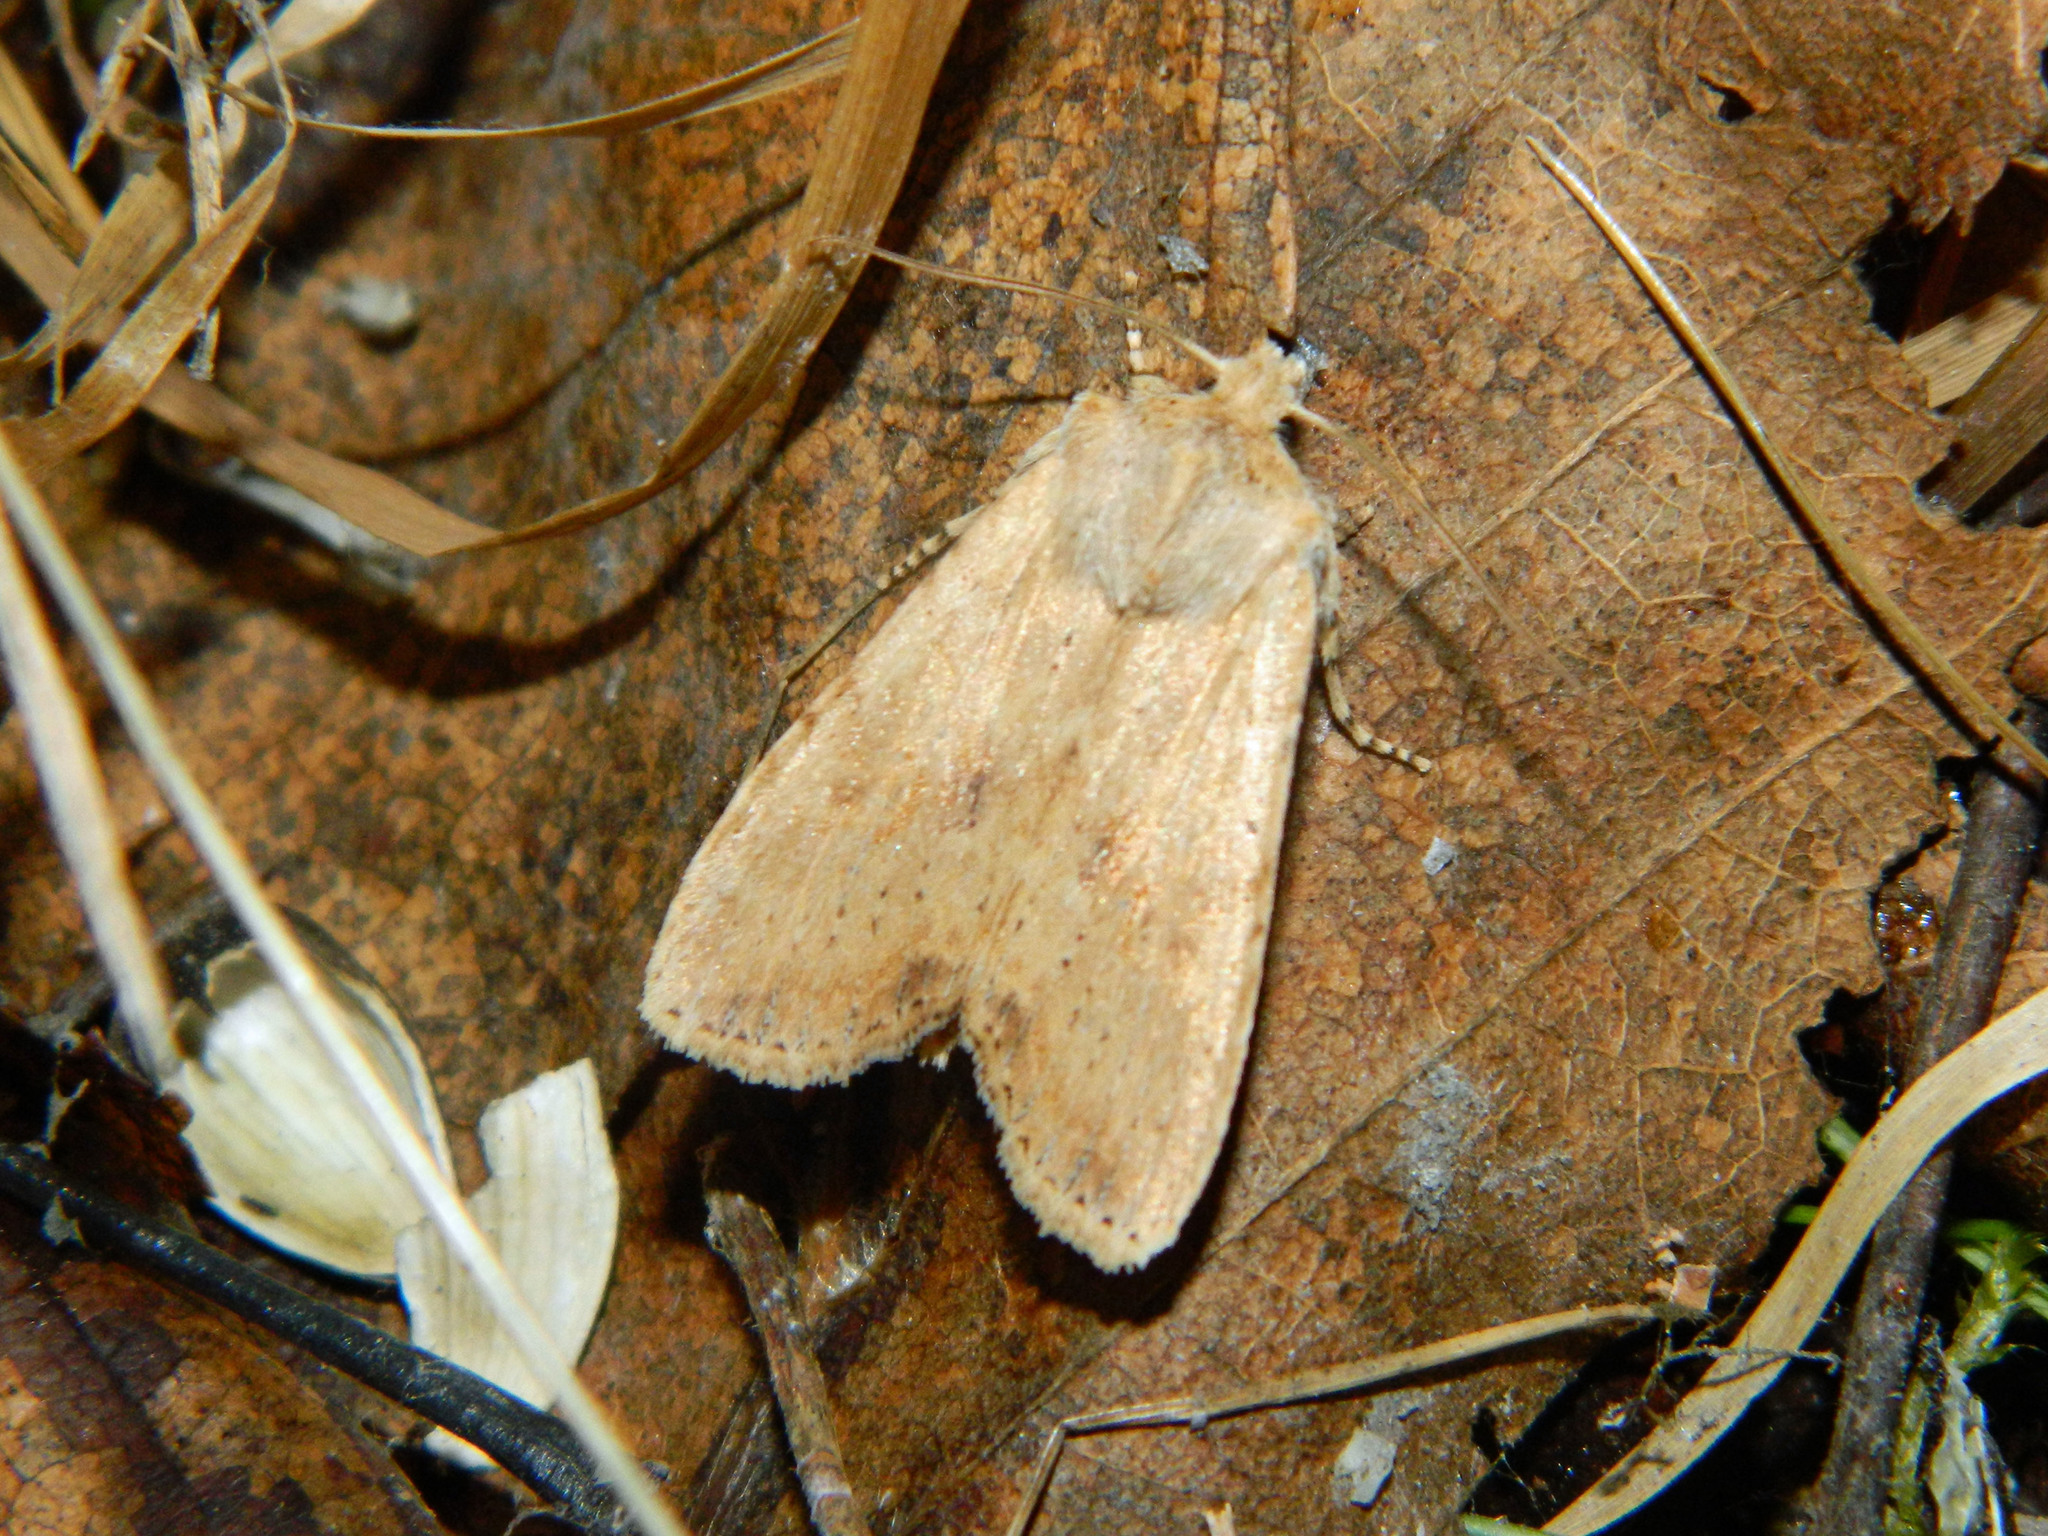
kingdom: Animalia
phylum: Arthropoda
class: Insecta
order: Lepidoptera
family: Noctuidae
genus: Lithophane
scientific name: Lithophane innominata
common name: Nameless pinion moth
